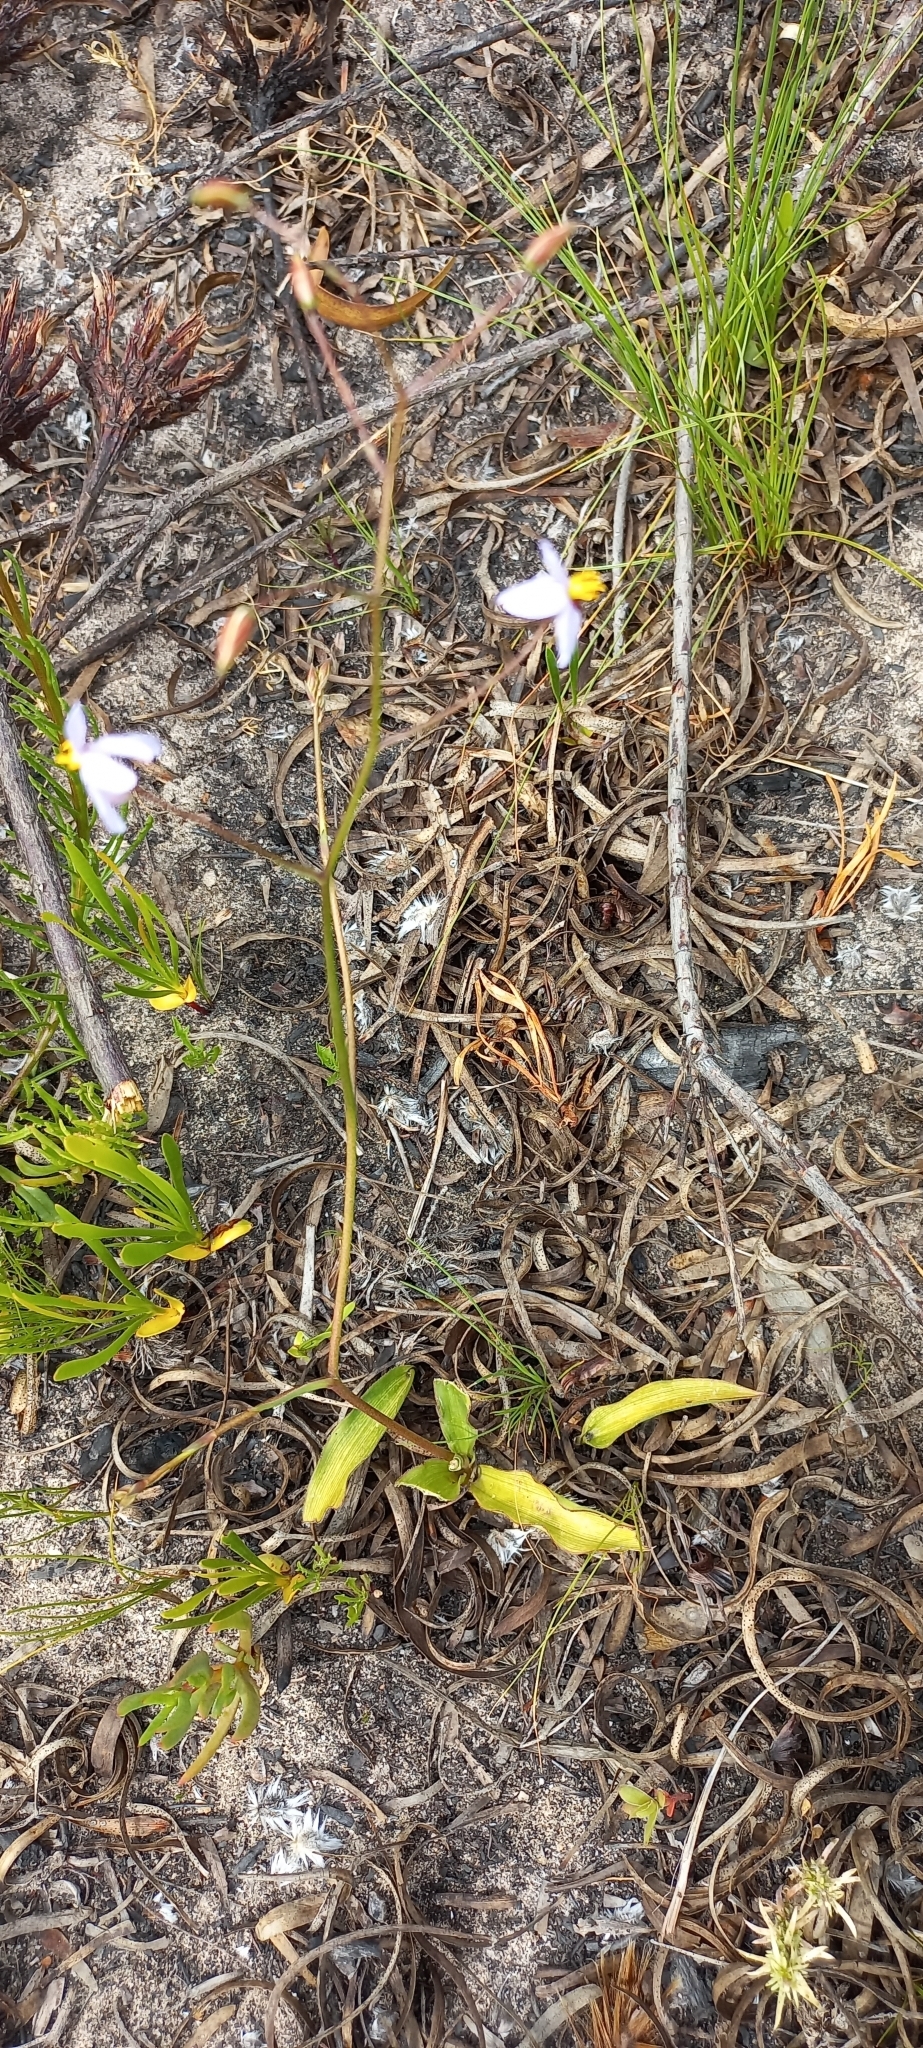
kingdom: Plantae
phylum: Tracheophyta
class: Liliopsida
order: Asparagales
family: Tecophilaeaceae
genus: Cyanella
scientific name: Cyanella hyacinthoides
